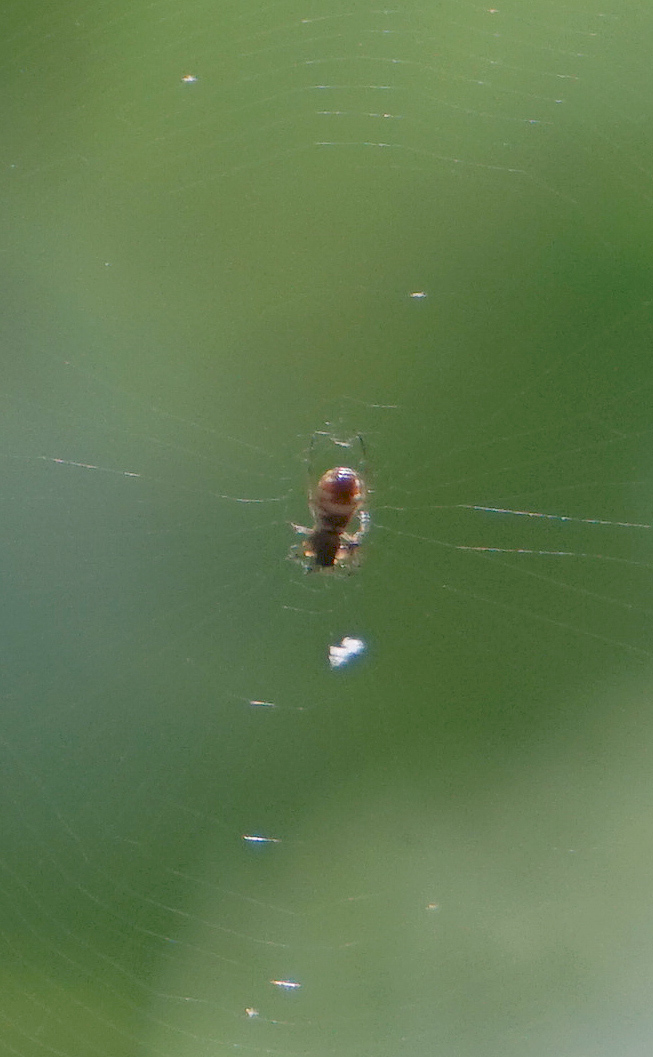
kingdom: Animalia
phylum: Arthropoda
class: Arachnida
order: Araneae
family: Araneidae
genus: Micrathena
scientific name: Micrathena mitrata
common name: Orb weavers
